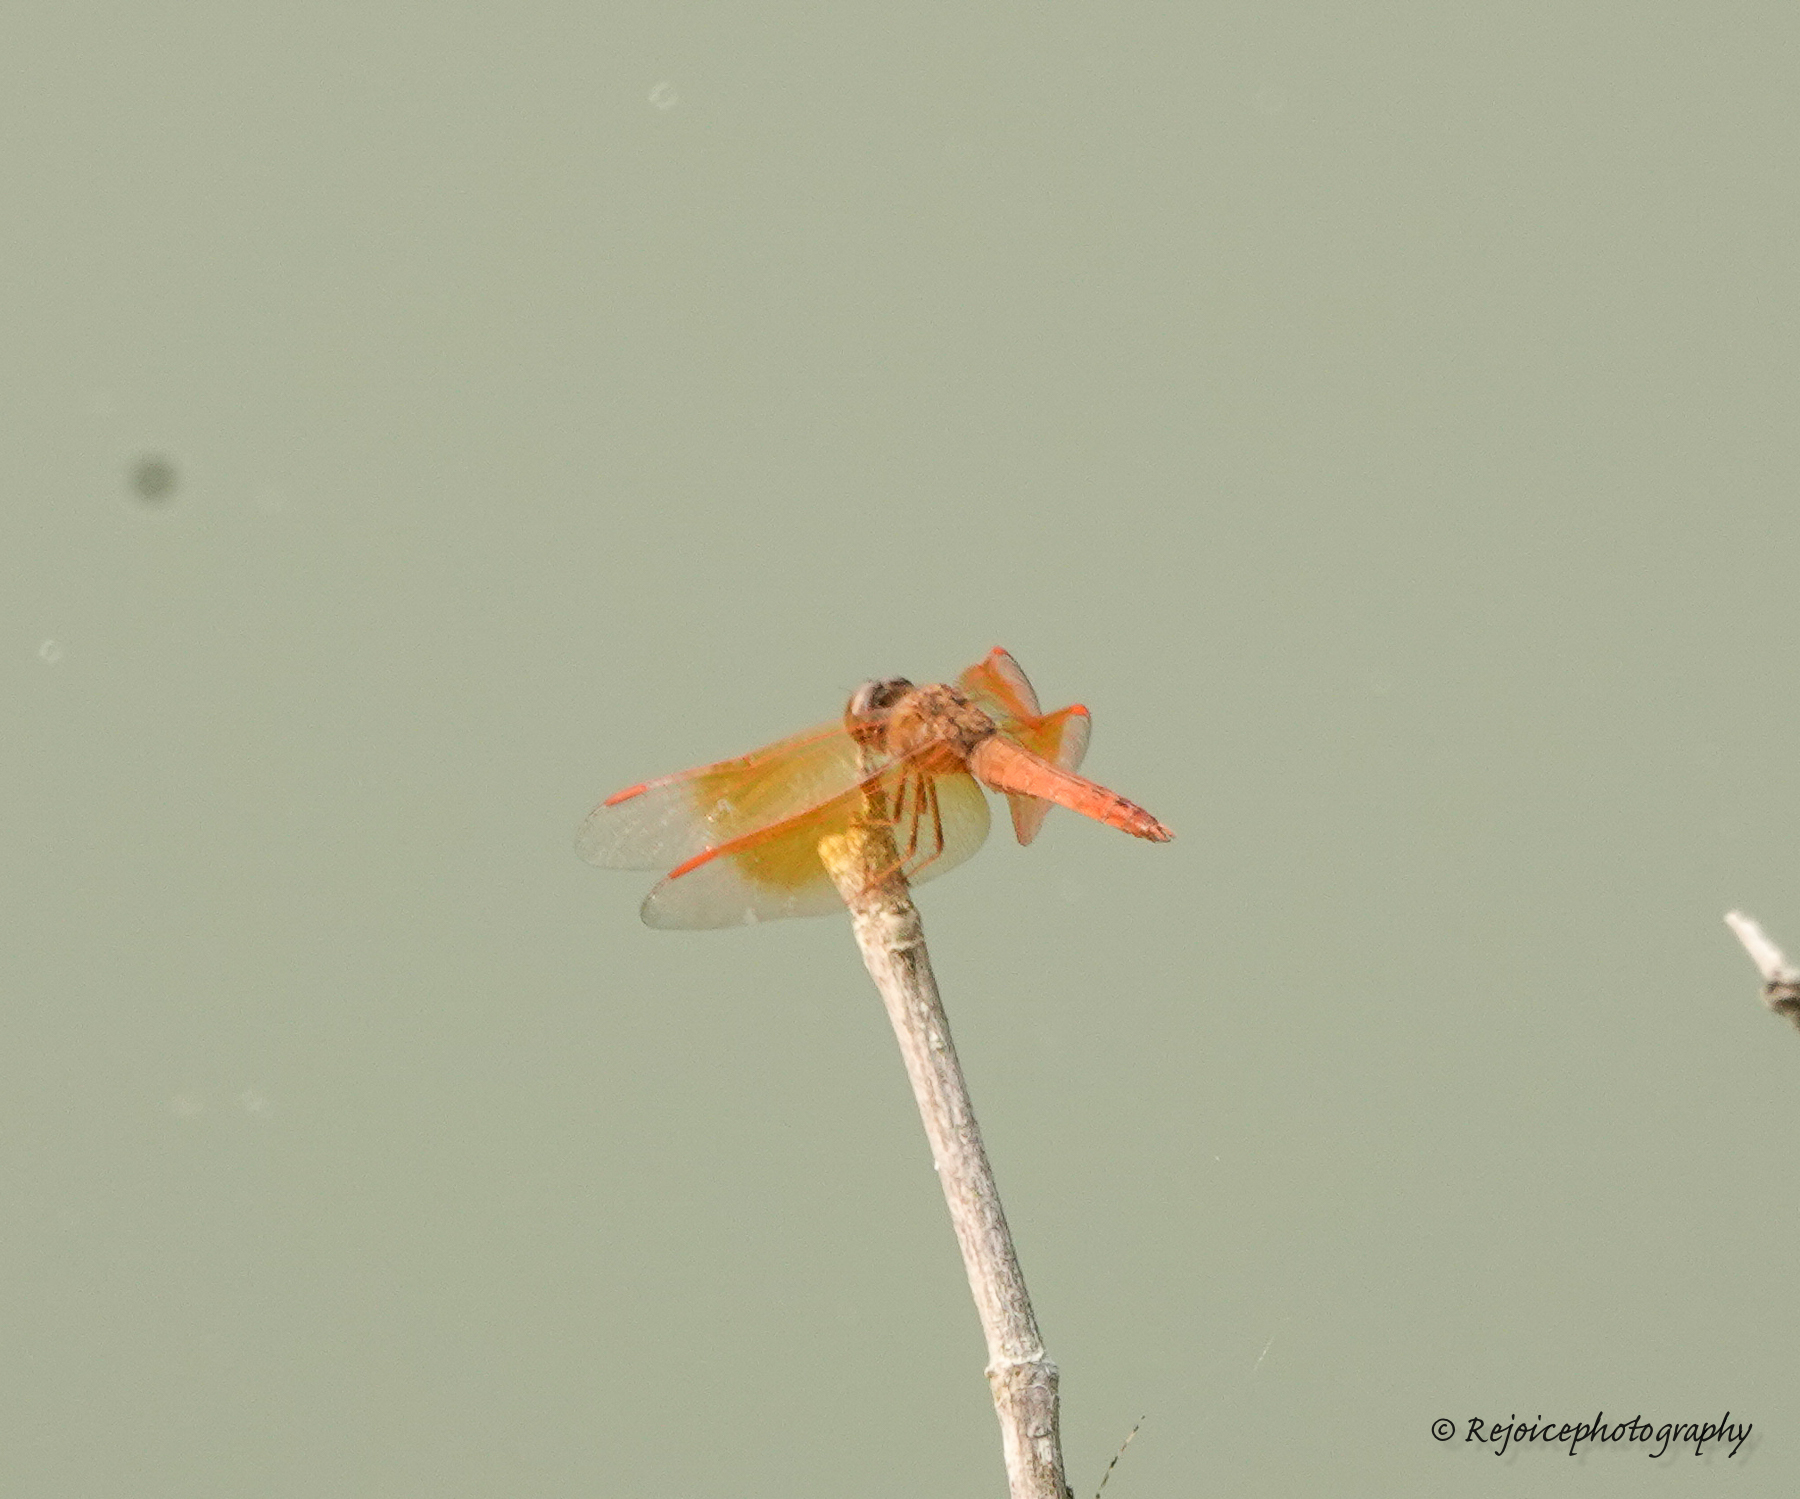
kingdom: Animalia
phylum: Arthropoda
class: Insecta
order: Odonata
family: Libellulidae
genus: Brachythemis
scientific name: Brachythemis contaminata
